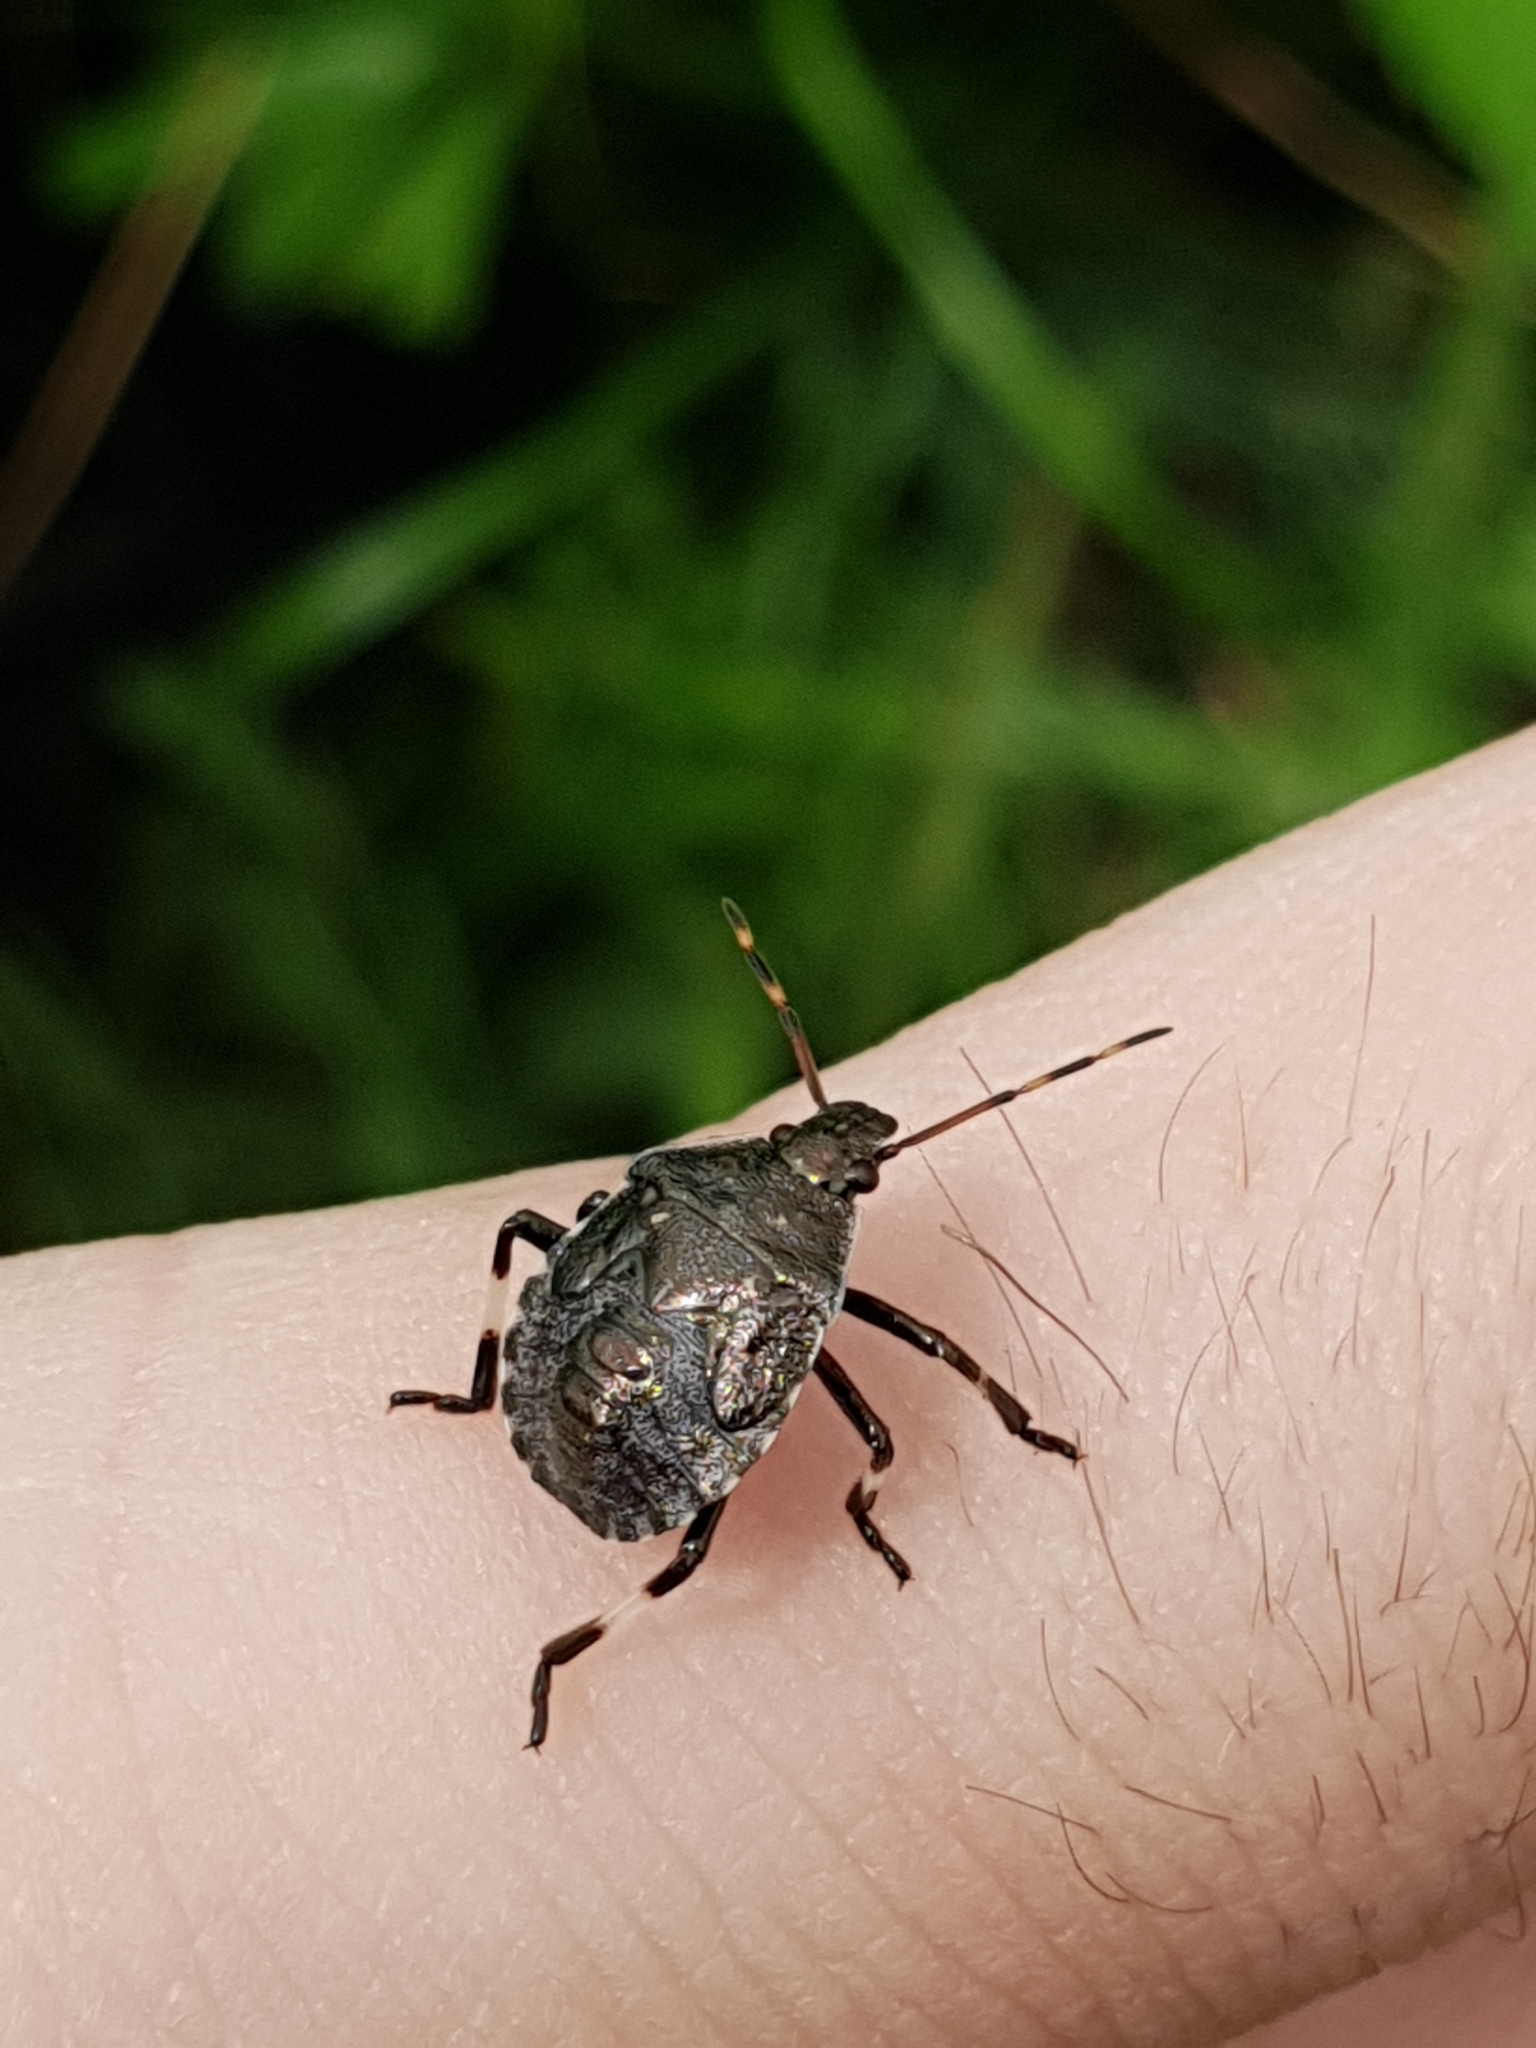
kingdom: Animalia
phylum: Arthropoda
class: Insecta
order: Hemiptera
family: Pentatomidae
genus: Picromerus
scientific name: Picromerus bidens
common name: Spiked shieldbug
